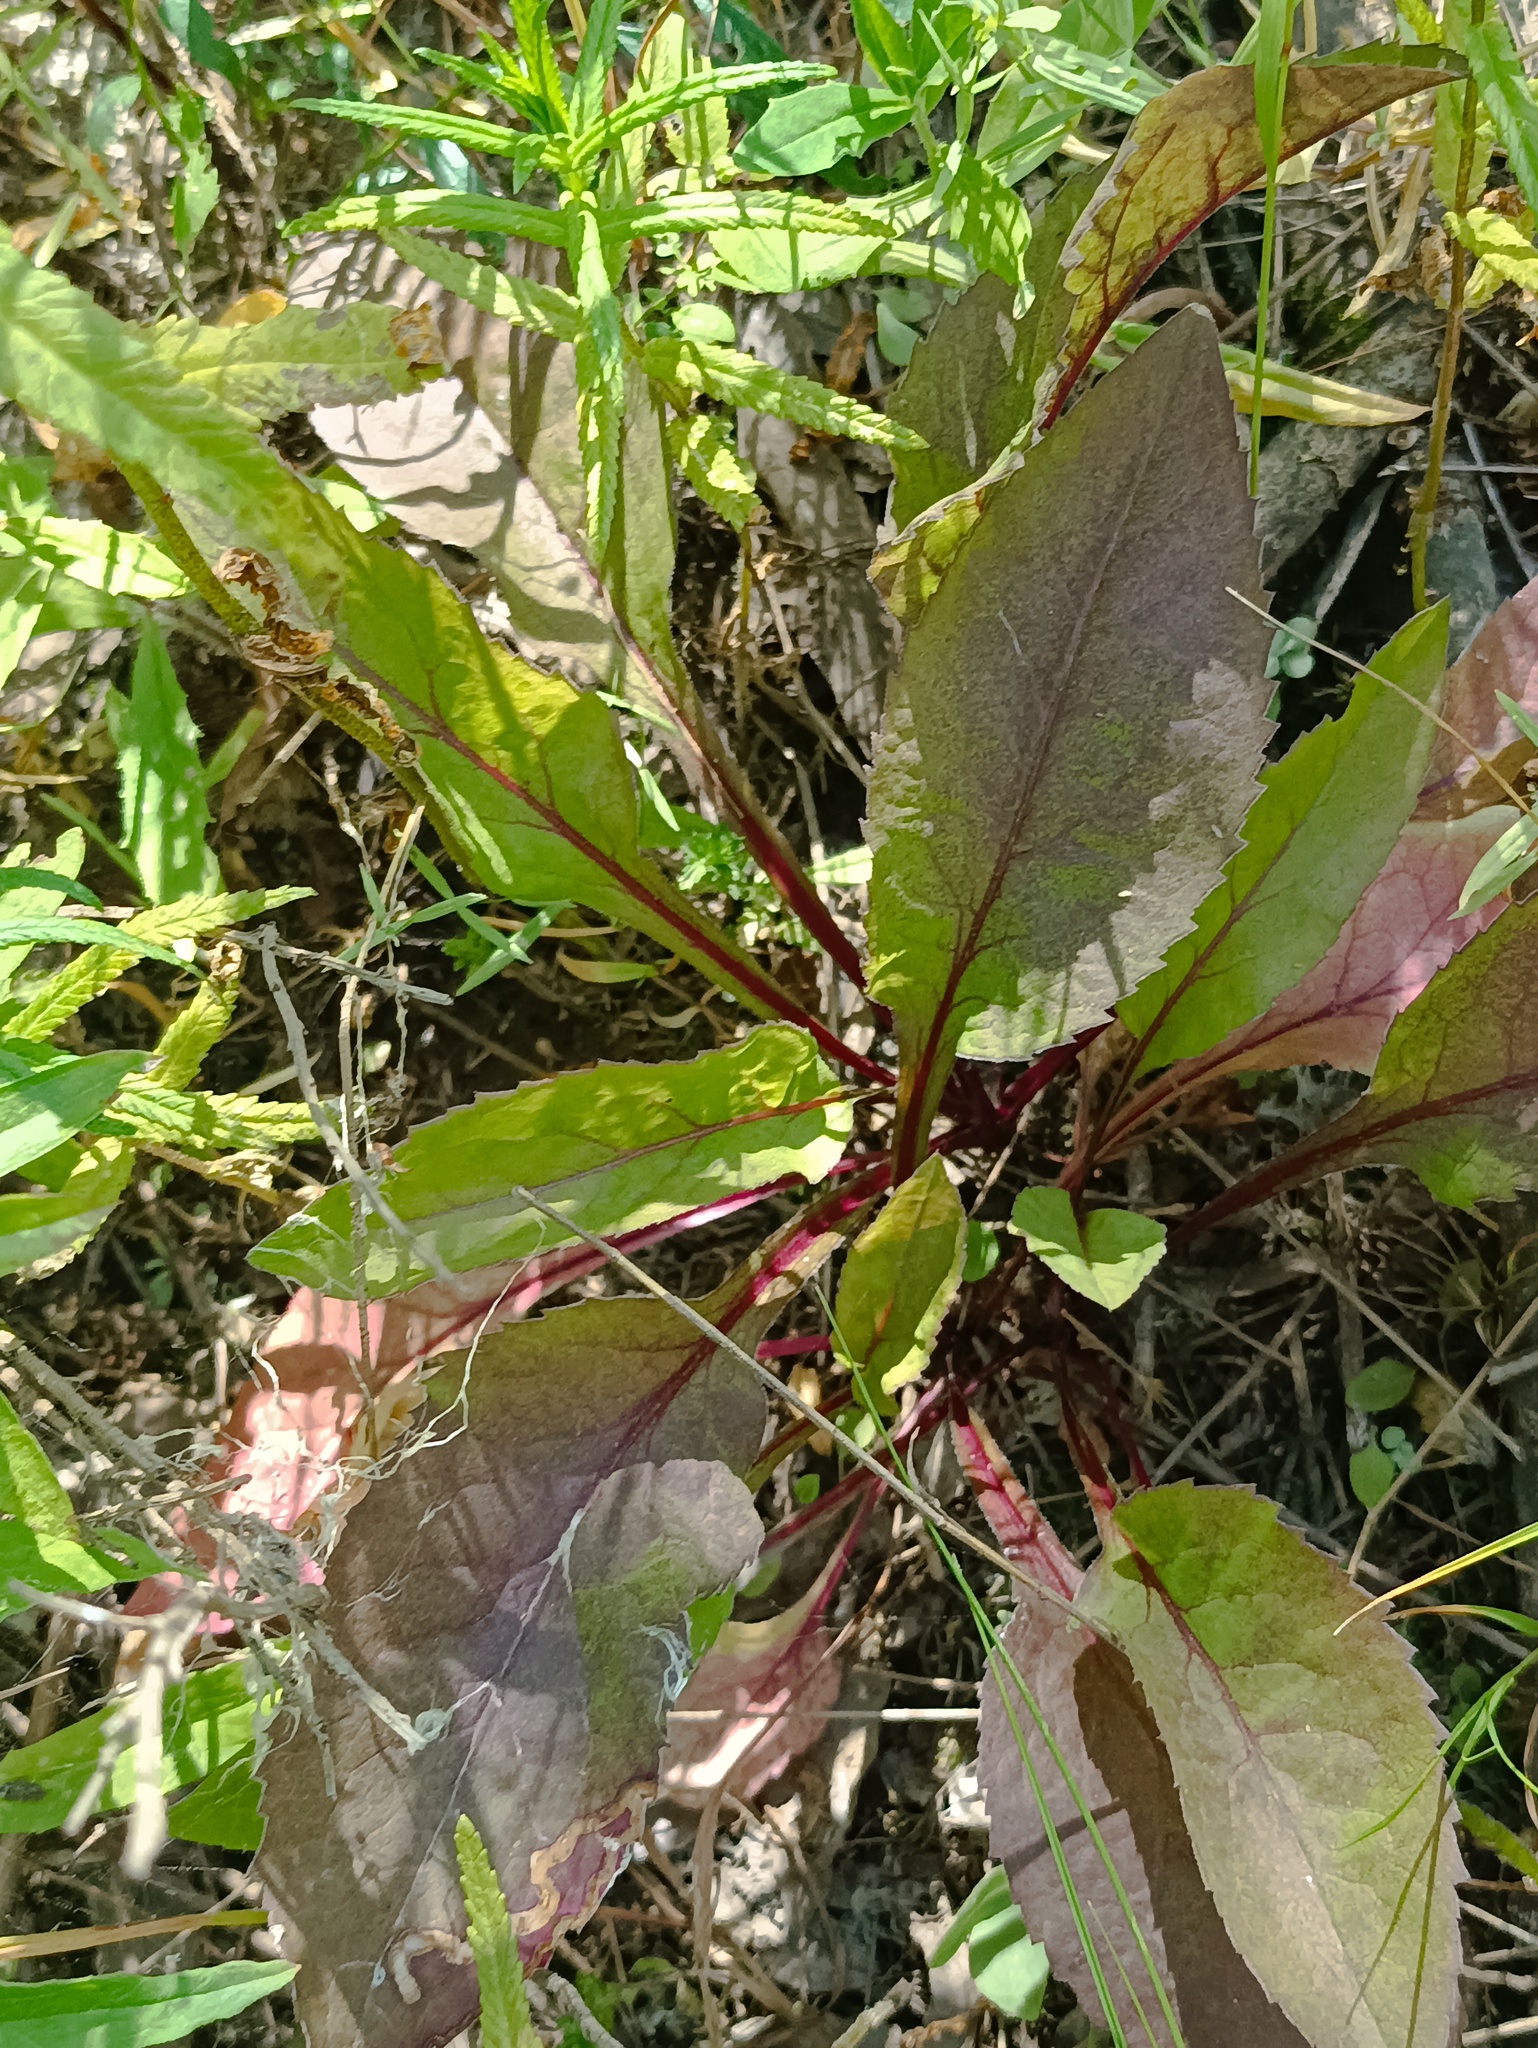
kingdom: Plantae
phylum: Tracheophyta
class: Magnoliopsida
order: Asterales
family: Asteraceae
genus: Solidago
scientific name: Solidago virgaurea
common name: Goldenrod
